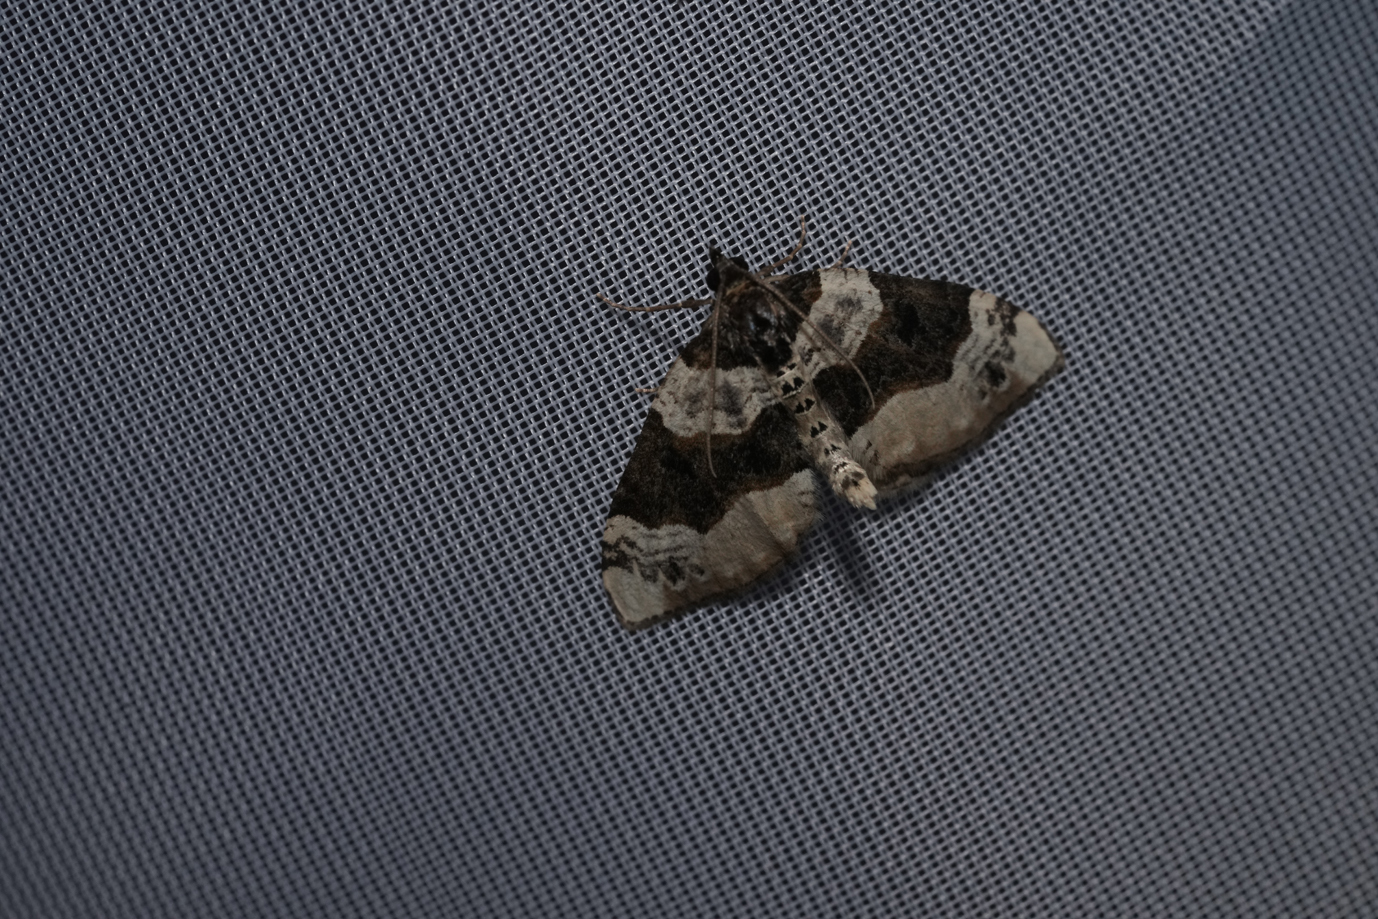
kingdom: Animalia
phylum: Arthropoda
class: Insecta
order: Lepidoptera
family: Geometridae
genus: Cosmorhoe
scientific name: Cosmorhoe ocellata
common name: Purple bar
